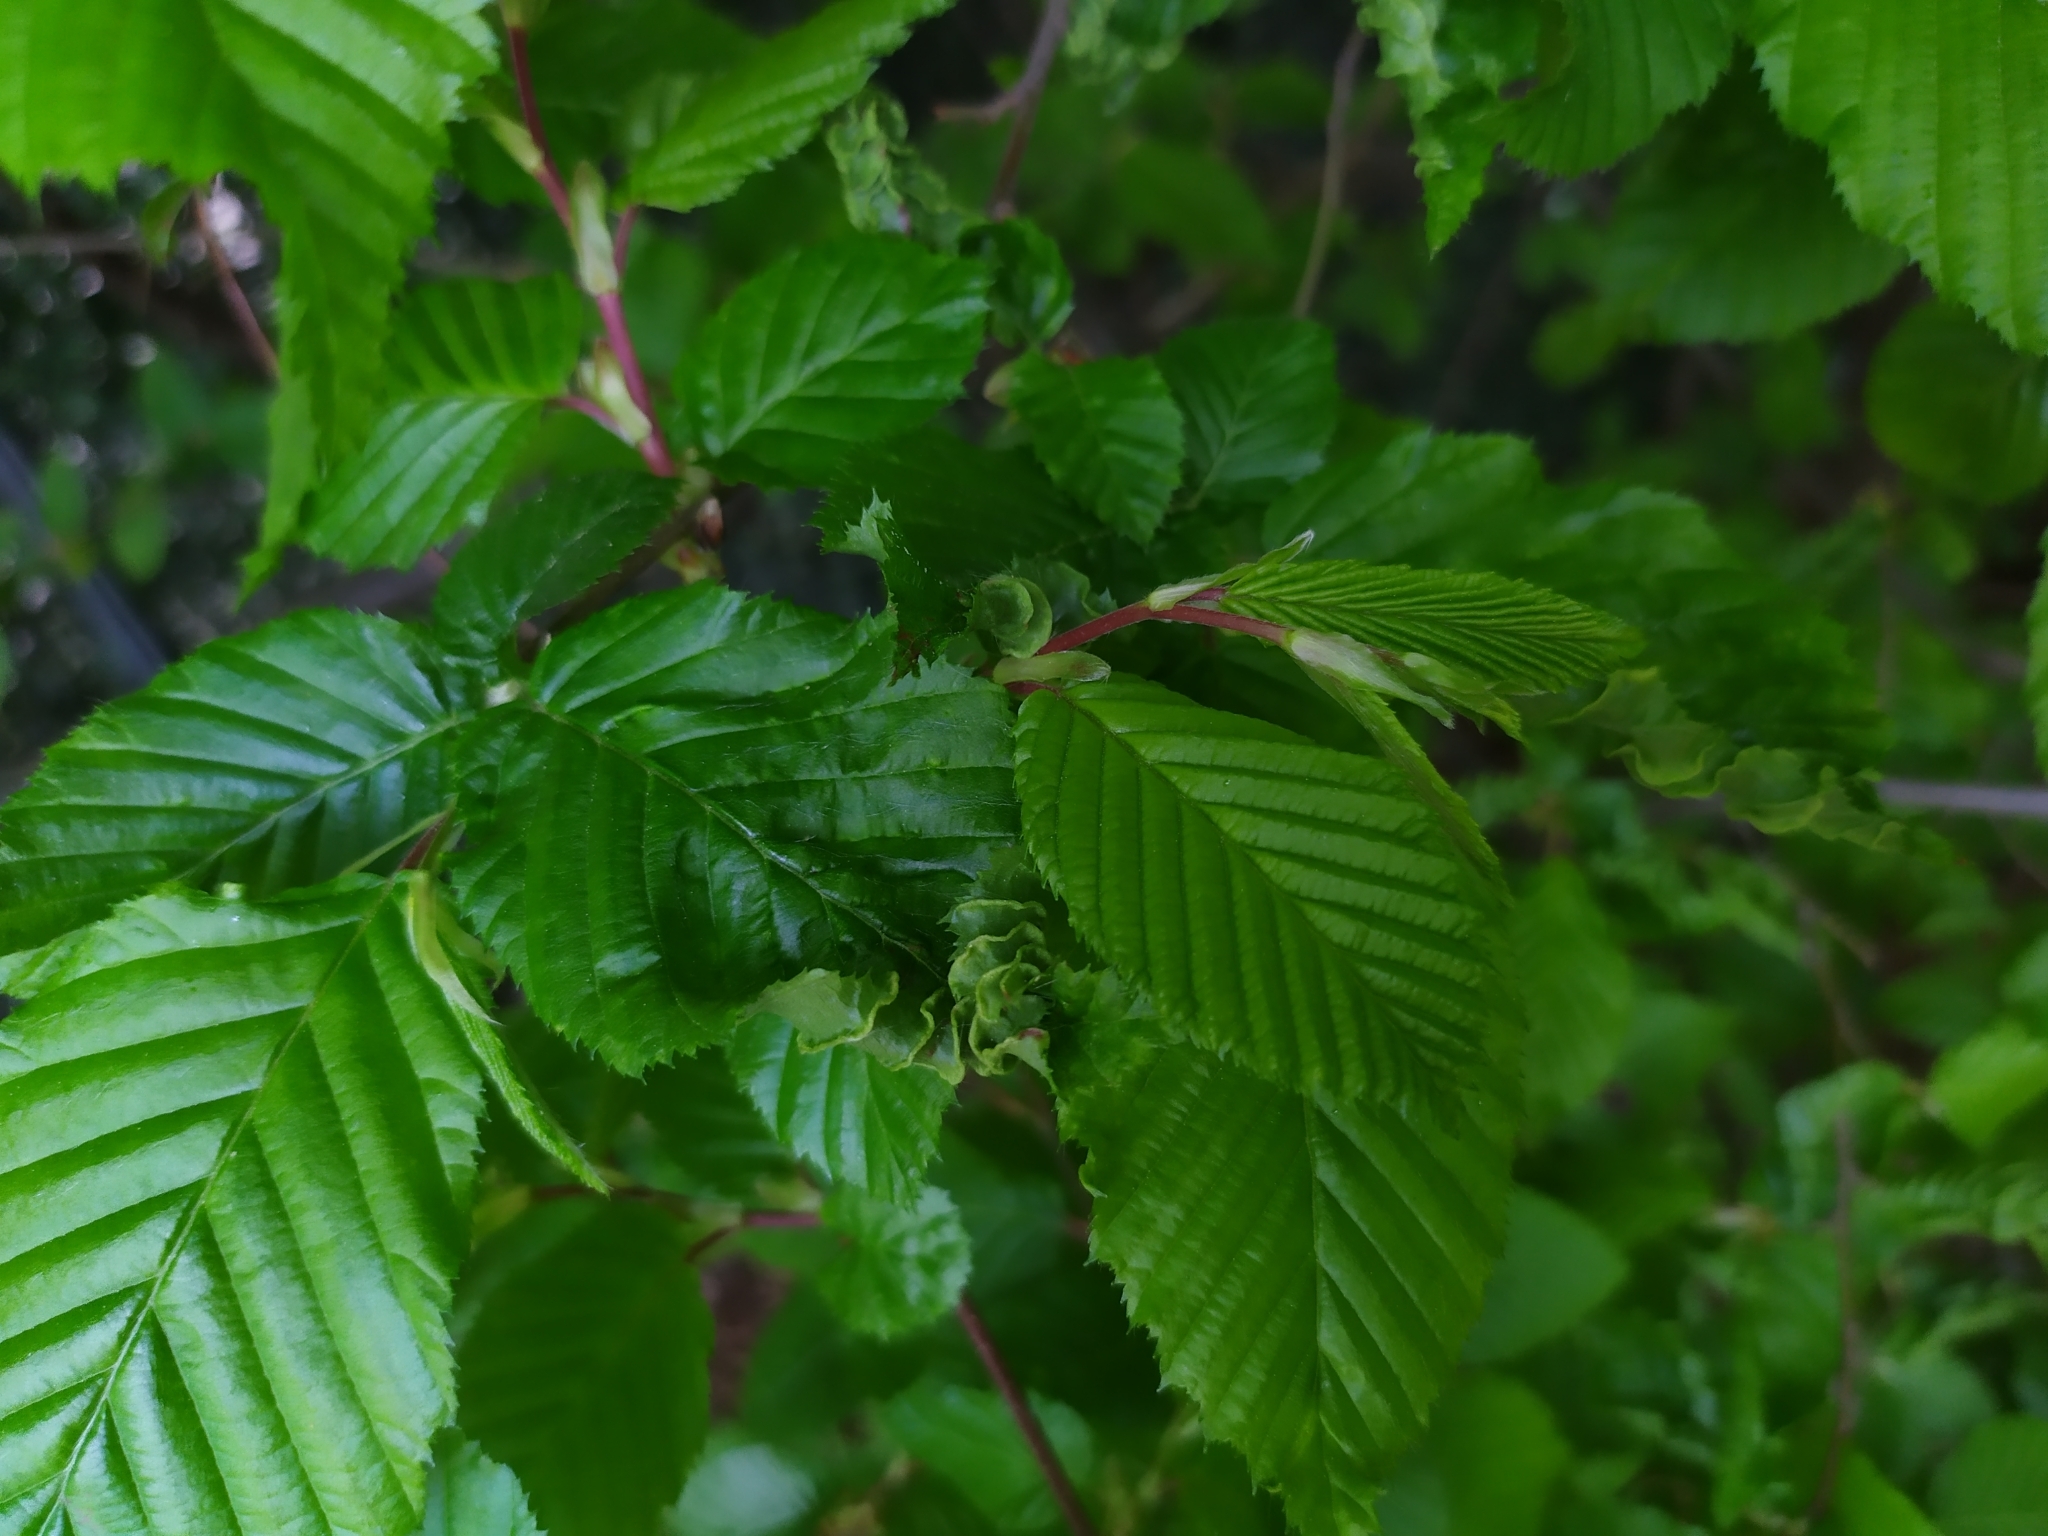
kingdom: Animalia
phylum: Arthropoda
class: Arachnida
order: Trombidiformes
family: Eriophyidae
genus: Aculops
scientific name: Aculops macrotrichus
